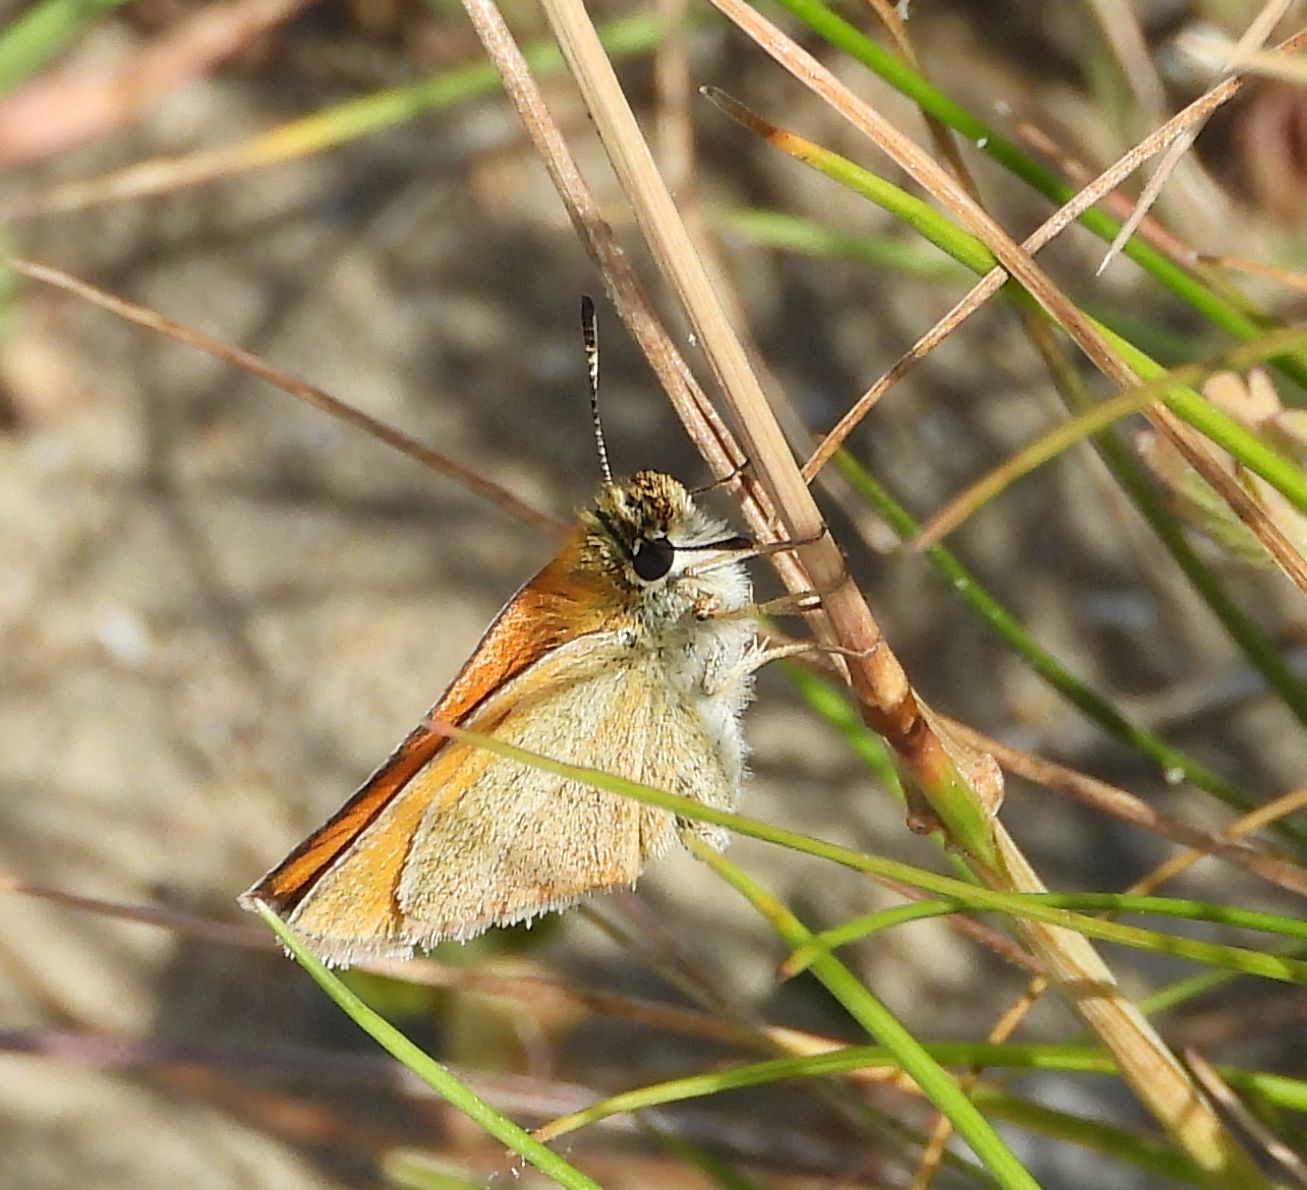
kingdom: Animalia
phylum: Arthropoda
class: Insecta
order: Lepidoptera
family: Hesperiidae
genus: Thymelicus
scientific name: Thymelicus lineola
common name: Essex skipper
